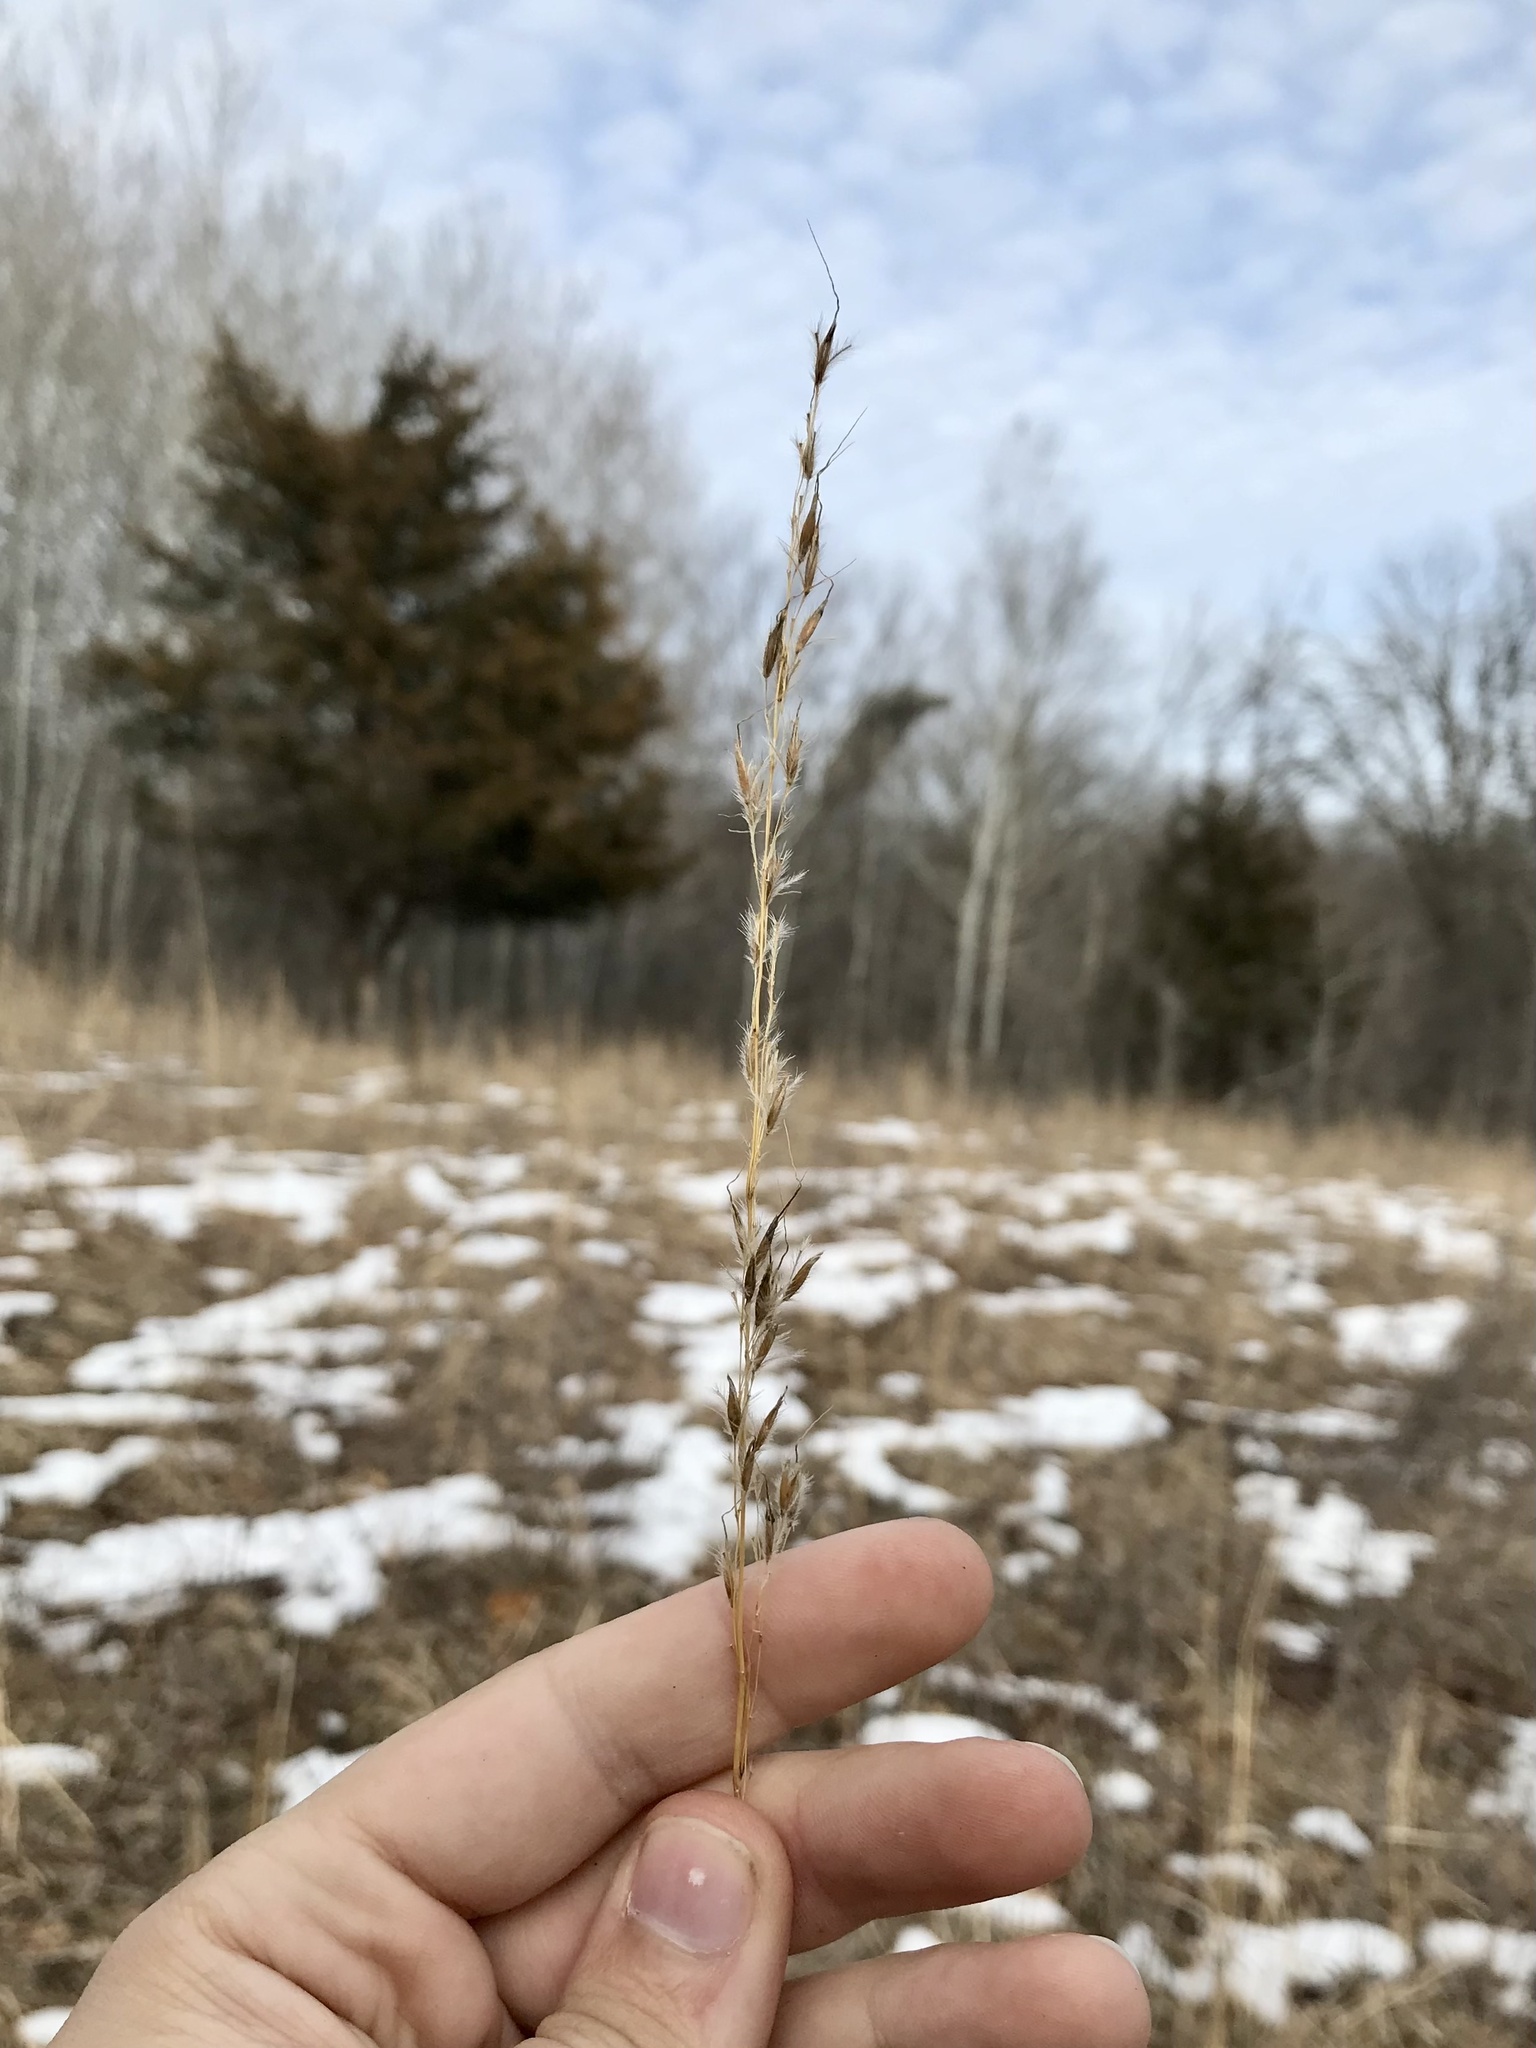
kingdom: Plantae
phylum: Tracheophyta
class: Liliopsida
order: Poales
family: Poaceae
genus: Sorghastrum
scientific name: Sorghastrum nutans
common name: Indian grass
